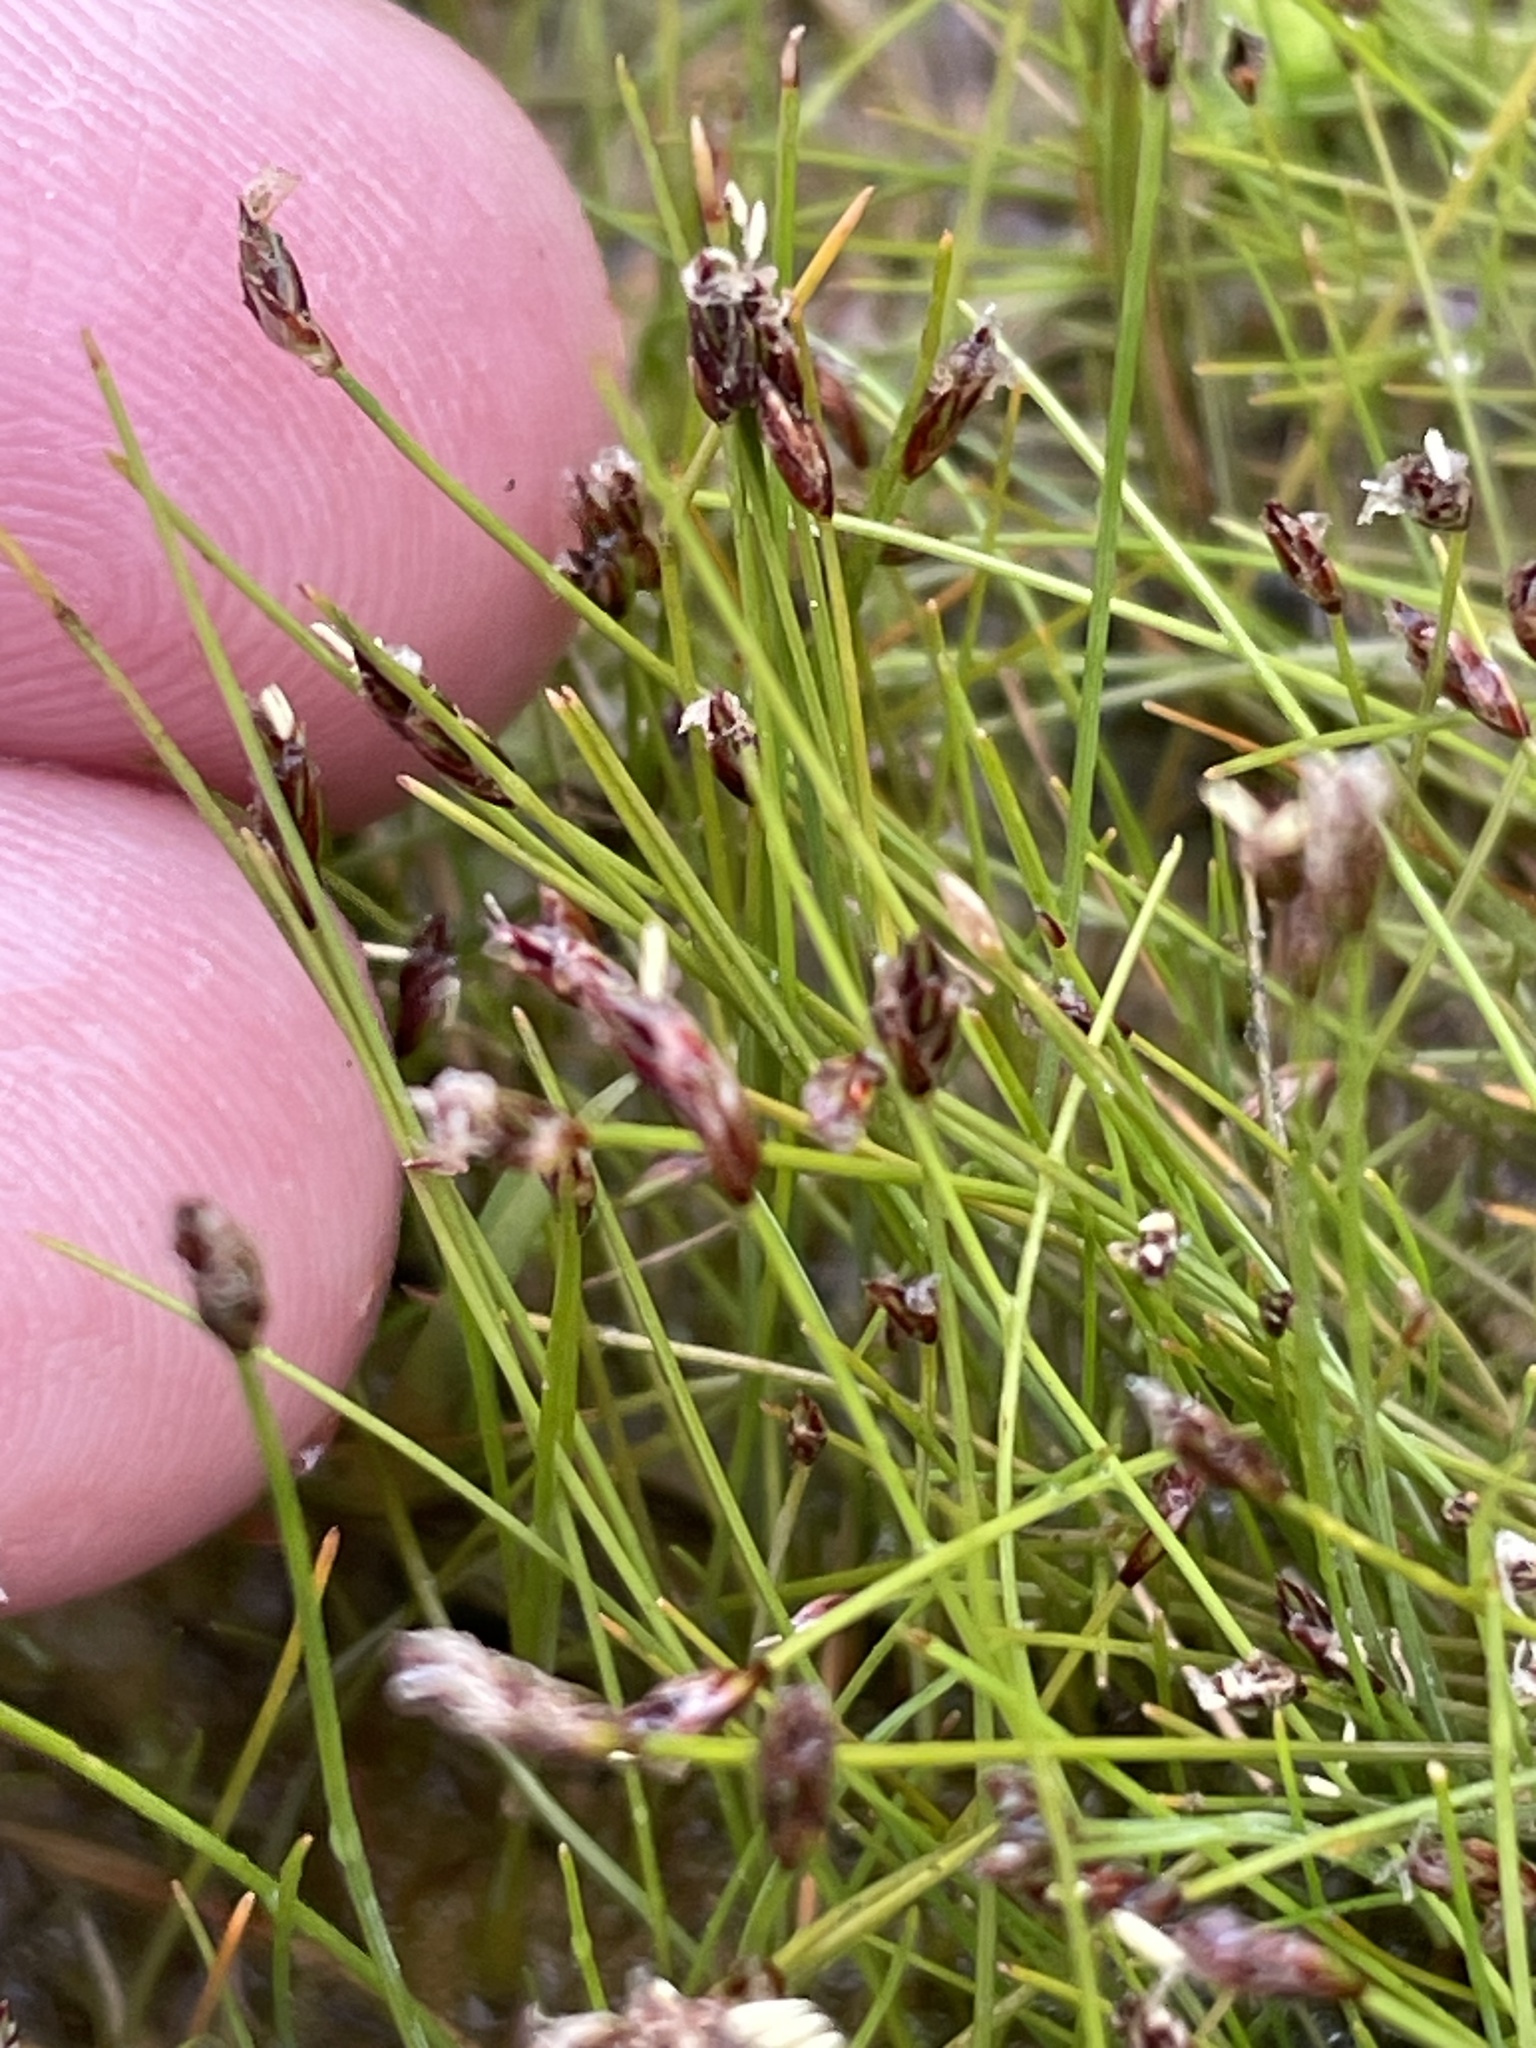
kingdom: Plantae
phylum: Tracheophyta
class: Liliopsida
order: Poales
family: Cyperaceae
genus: Eleocharis
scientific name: Eleocharis acicularis
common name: Needle spike-rush
